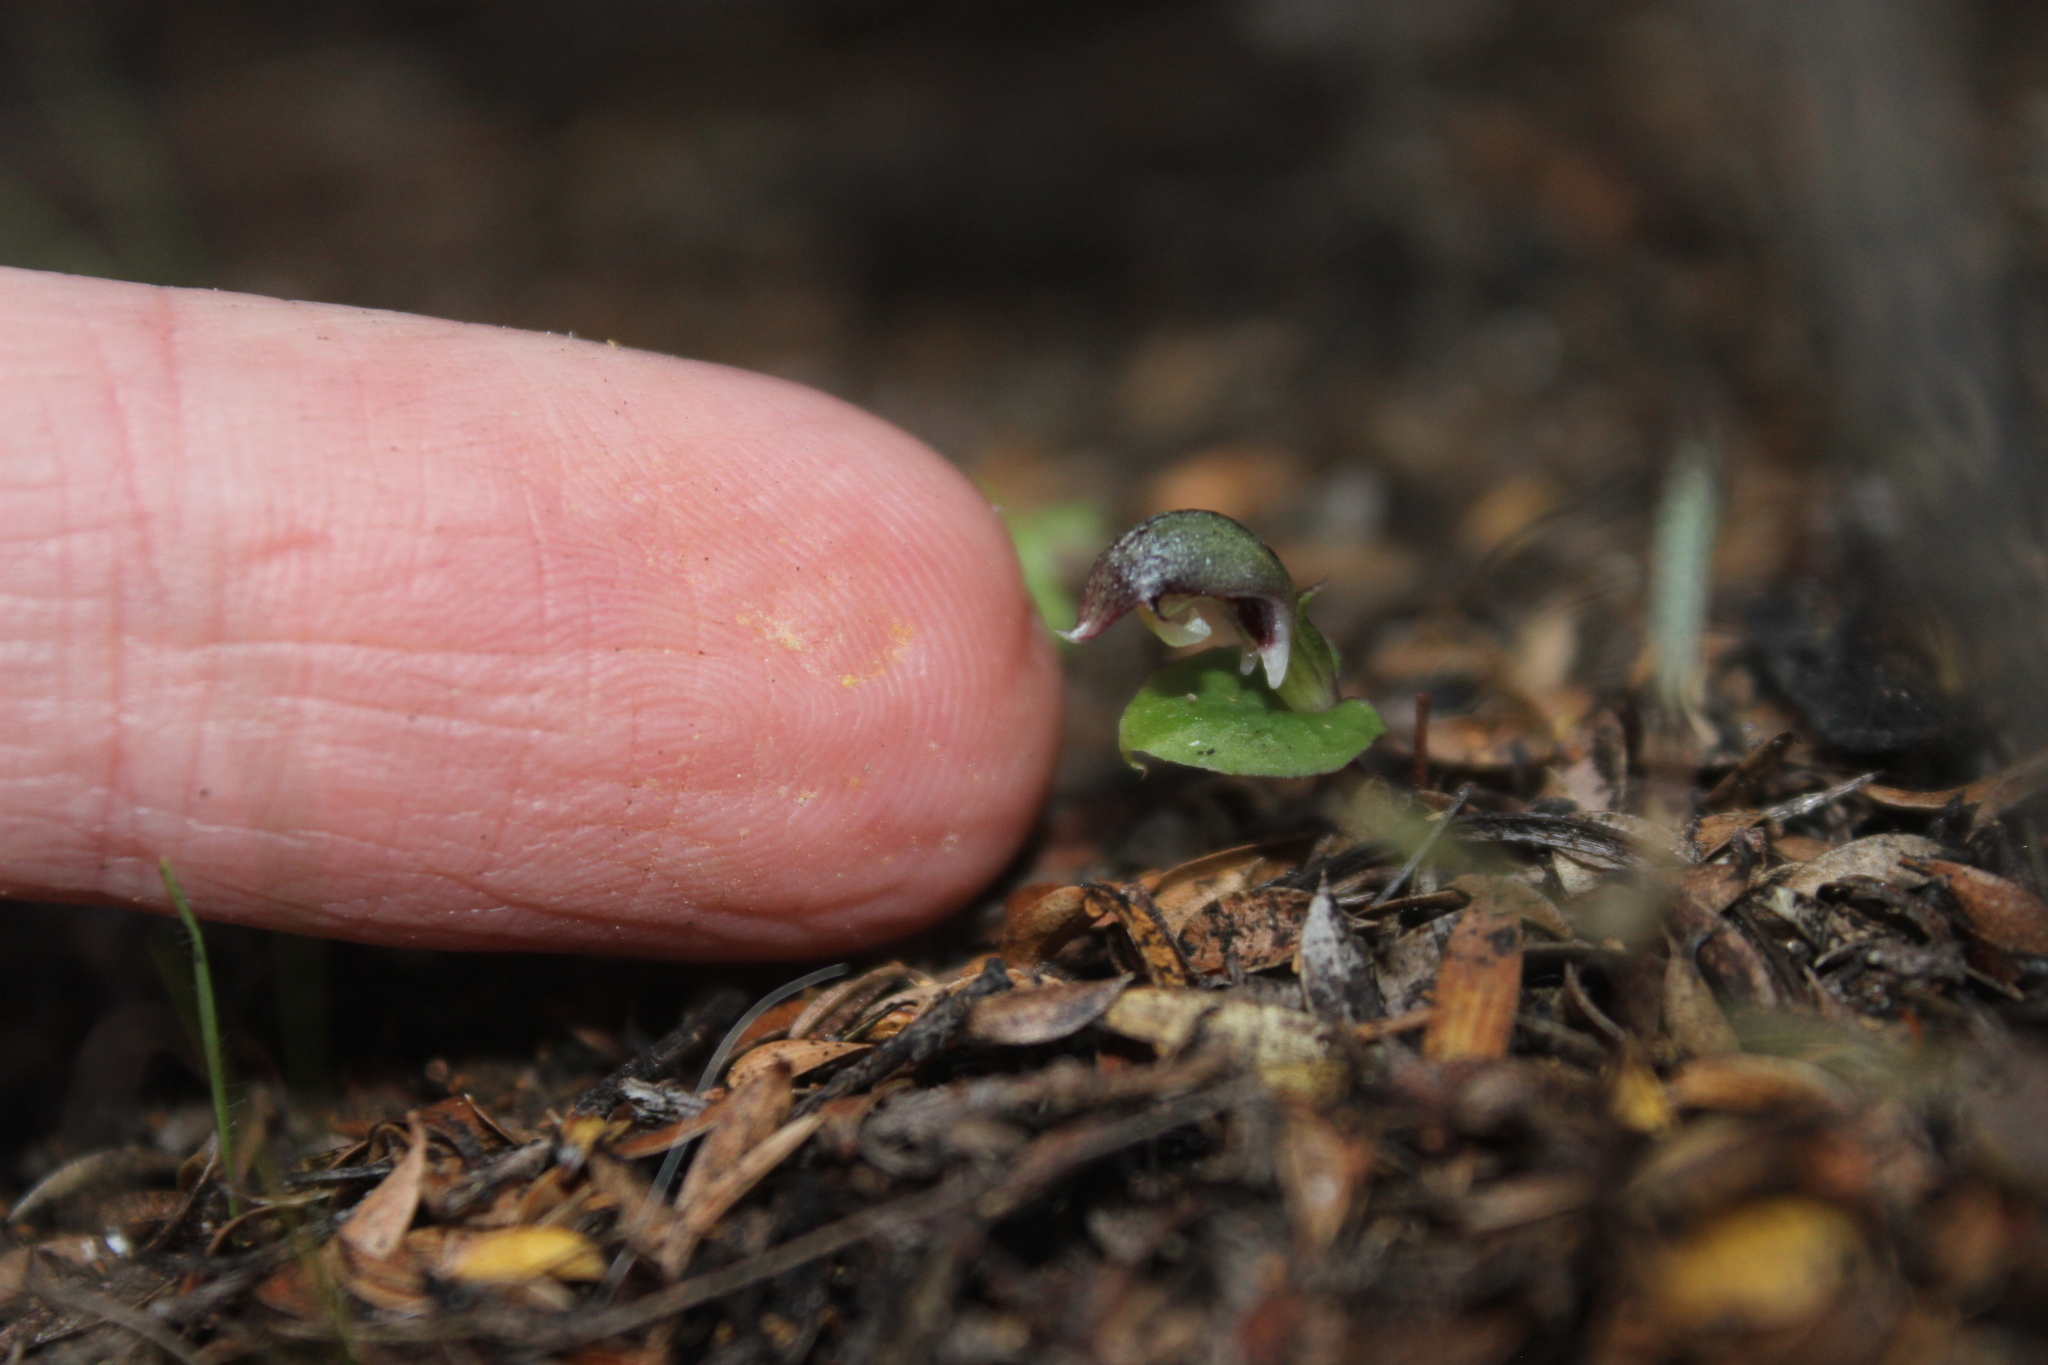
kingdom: Plantae
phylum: Tracheophyta
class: Liliopsida
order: Asparagales
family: Orchidaceae
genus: Corybas
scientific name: Corybas cheesemanii
